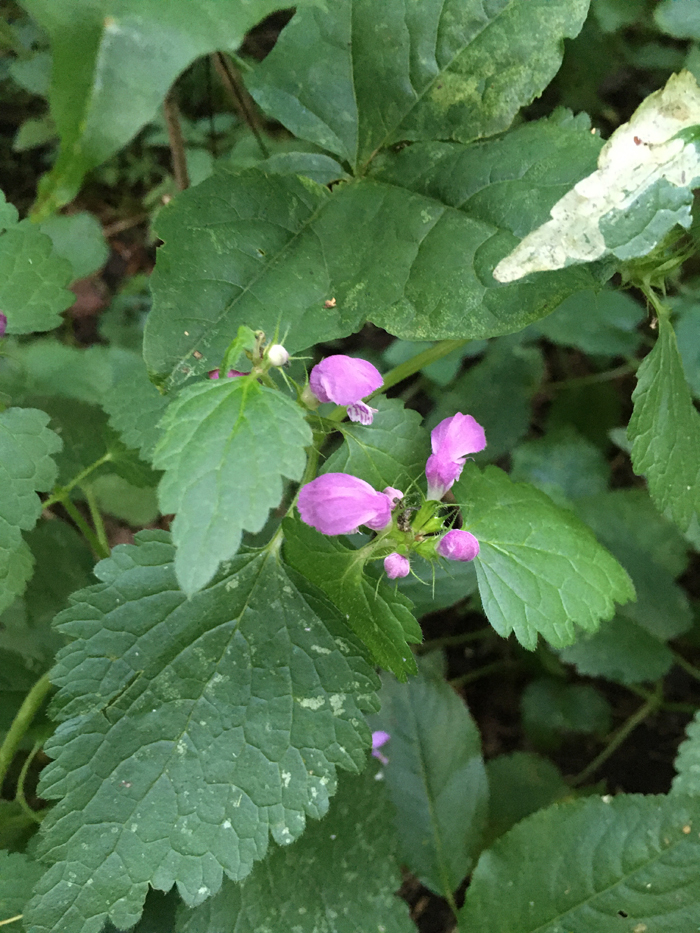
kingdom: Plantae
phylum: Tracheophyta
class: Magnoliopsida
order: Lamiales
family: Lamiaceae
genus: Lamium
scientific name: Lamium maculatum
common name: Spotted dead-nettle
